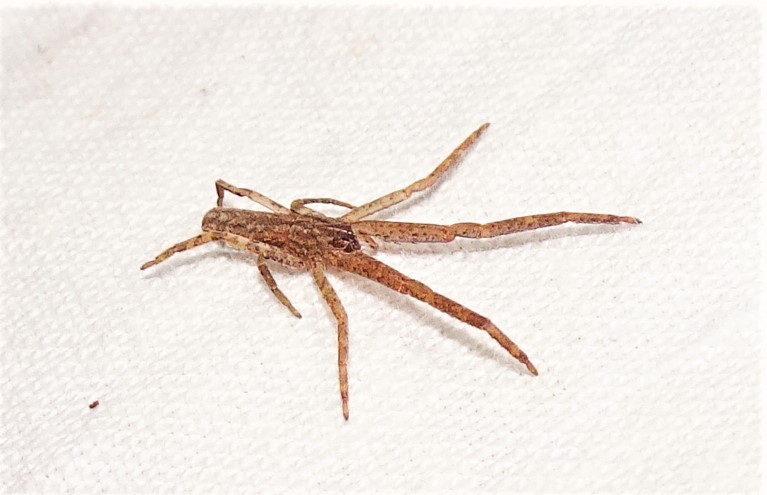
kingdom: Animalia
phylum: Arthropoda
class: Arachnida
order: Araneae
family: Thomisidae
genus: Synalus
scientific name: Synalus angustus
